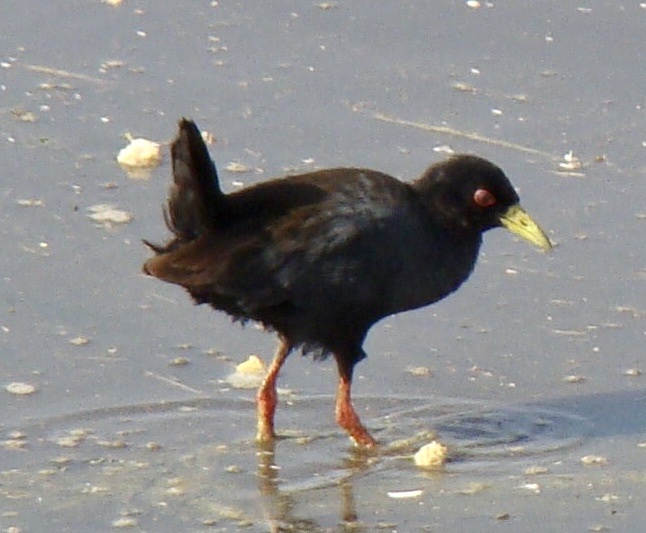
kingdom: Animalia
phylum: Chordata
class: Aves
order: Gruiformes
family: Rallidae
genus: Amaurornis
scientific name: Amaurornis flavirostra
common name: Black crake
